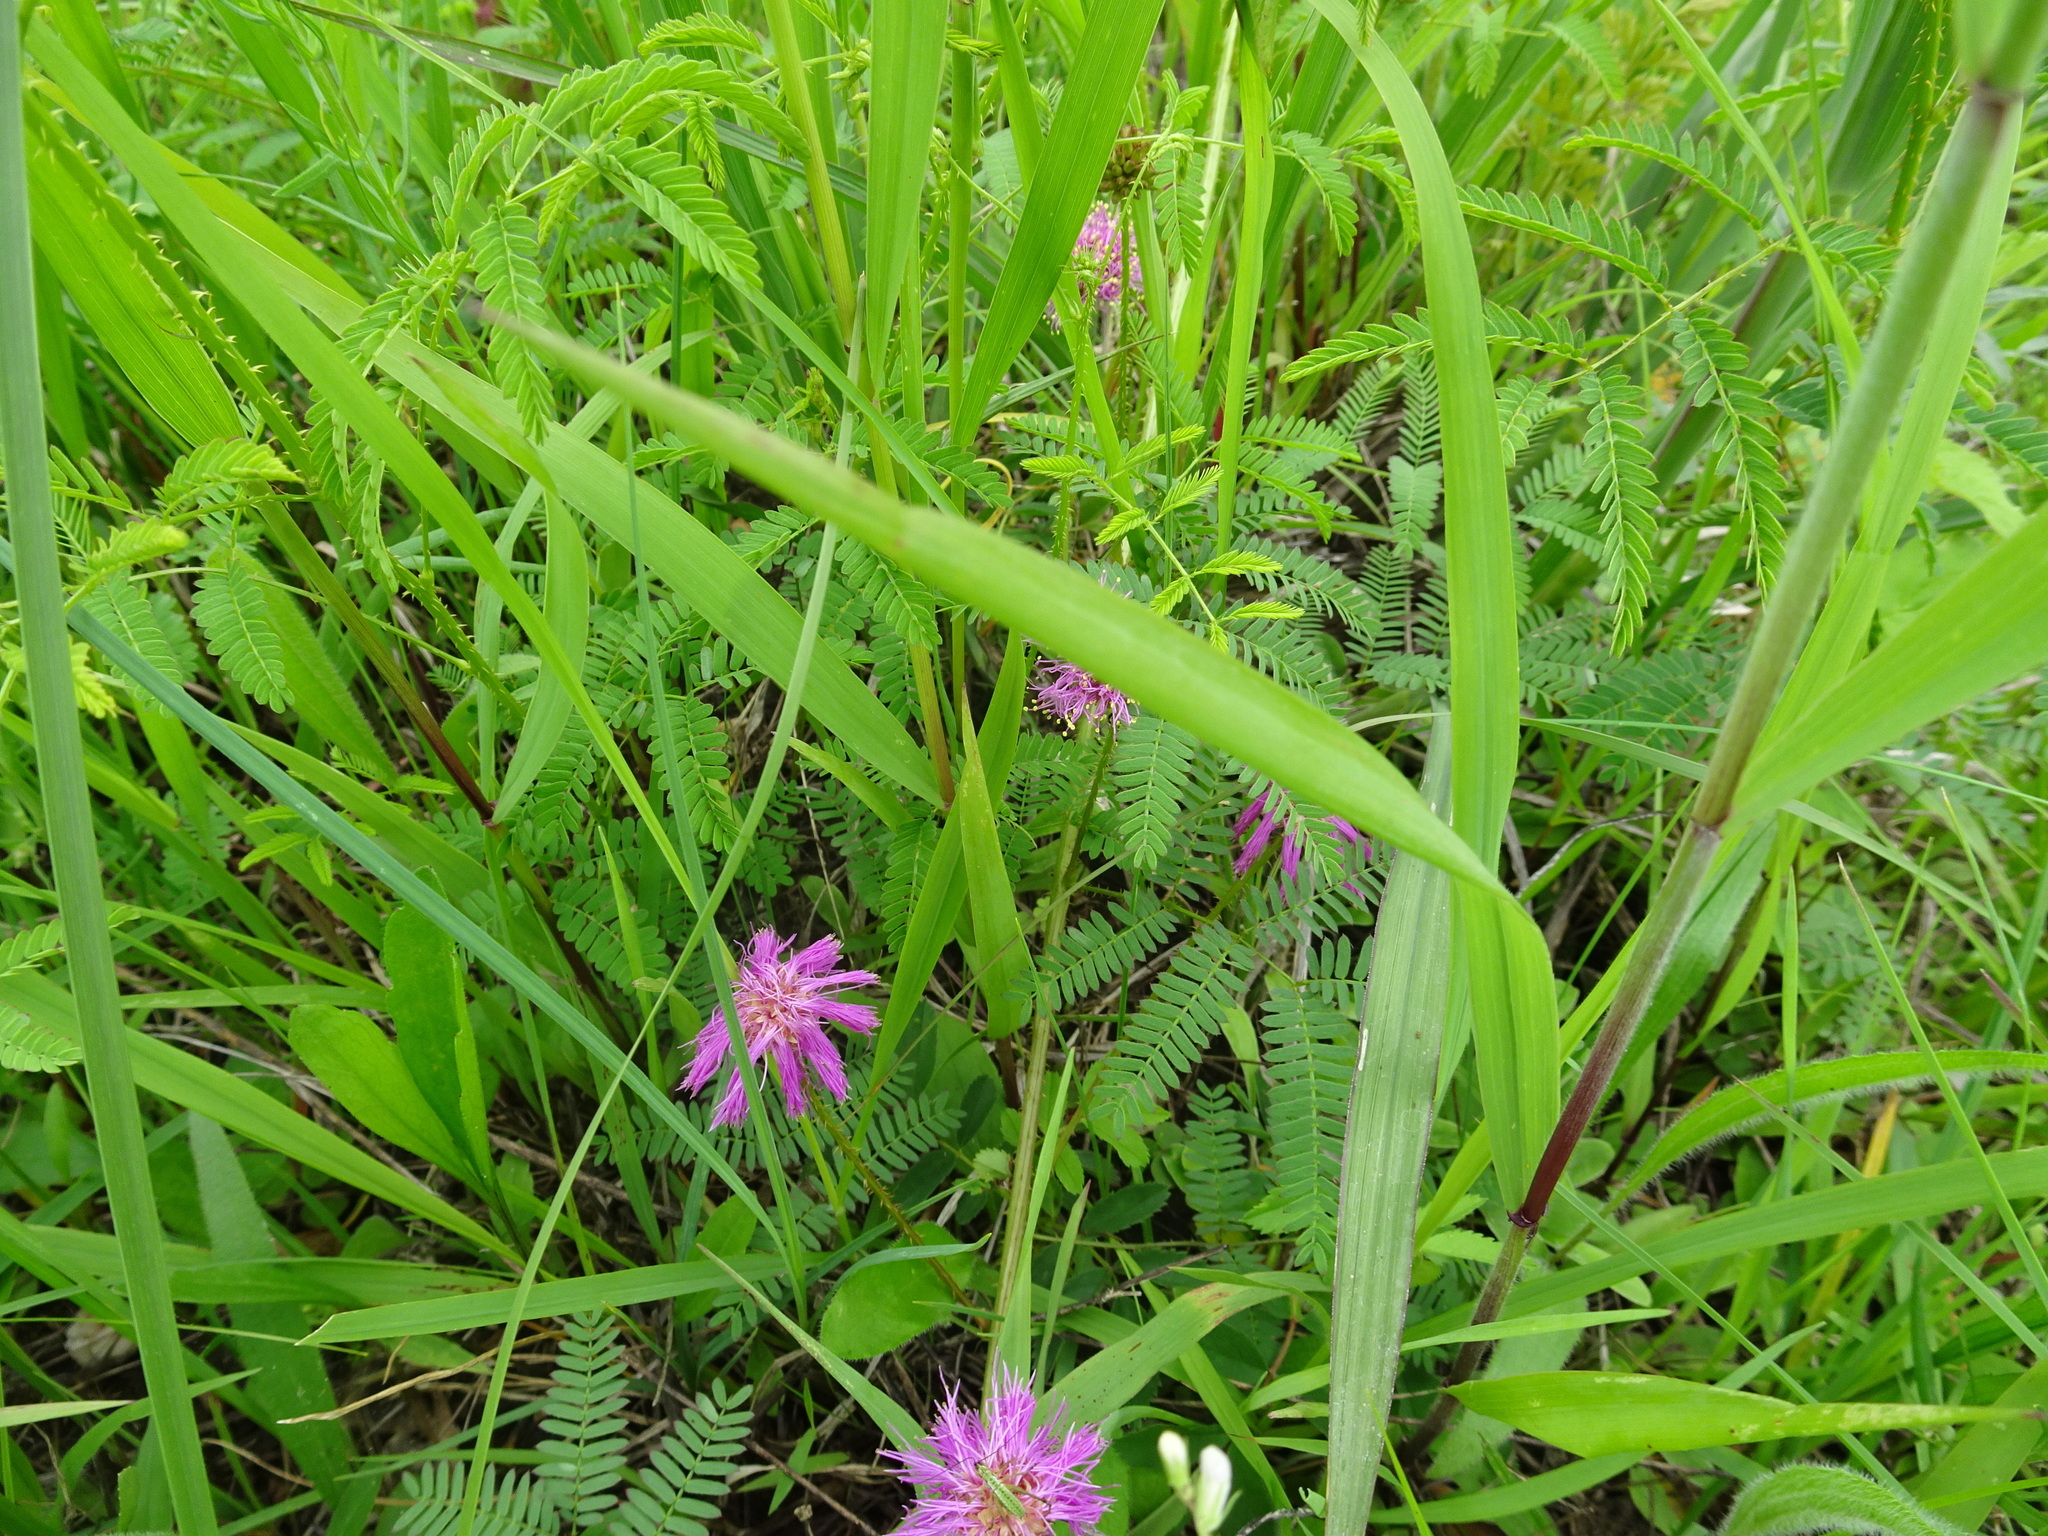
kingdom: Plantae
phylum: Tracheophyta
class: Magnoliopsida
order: Fabales
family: Fabaceae
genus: Mimosa
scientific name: Mimosa quadrivalvis
